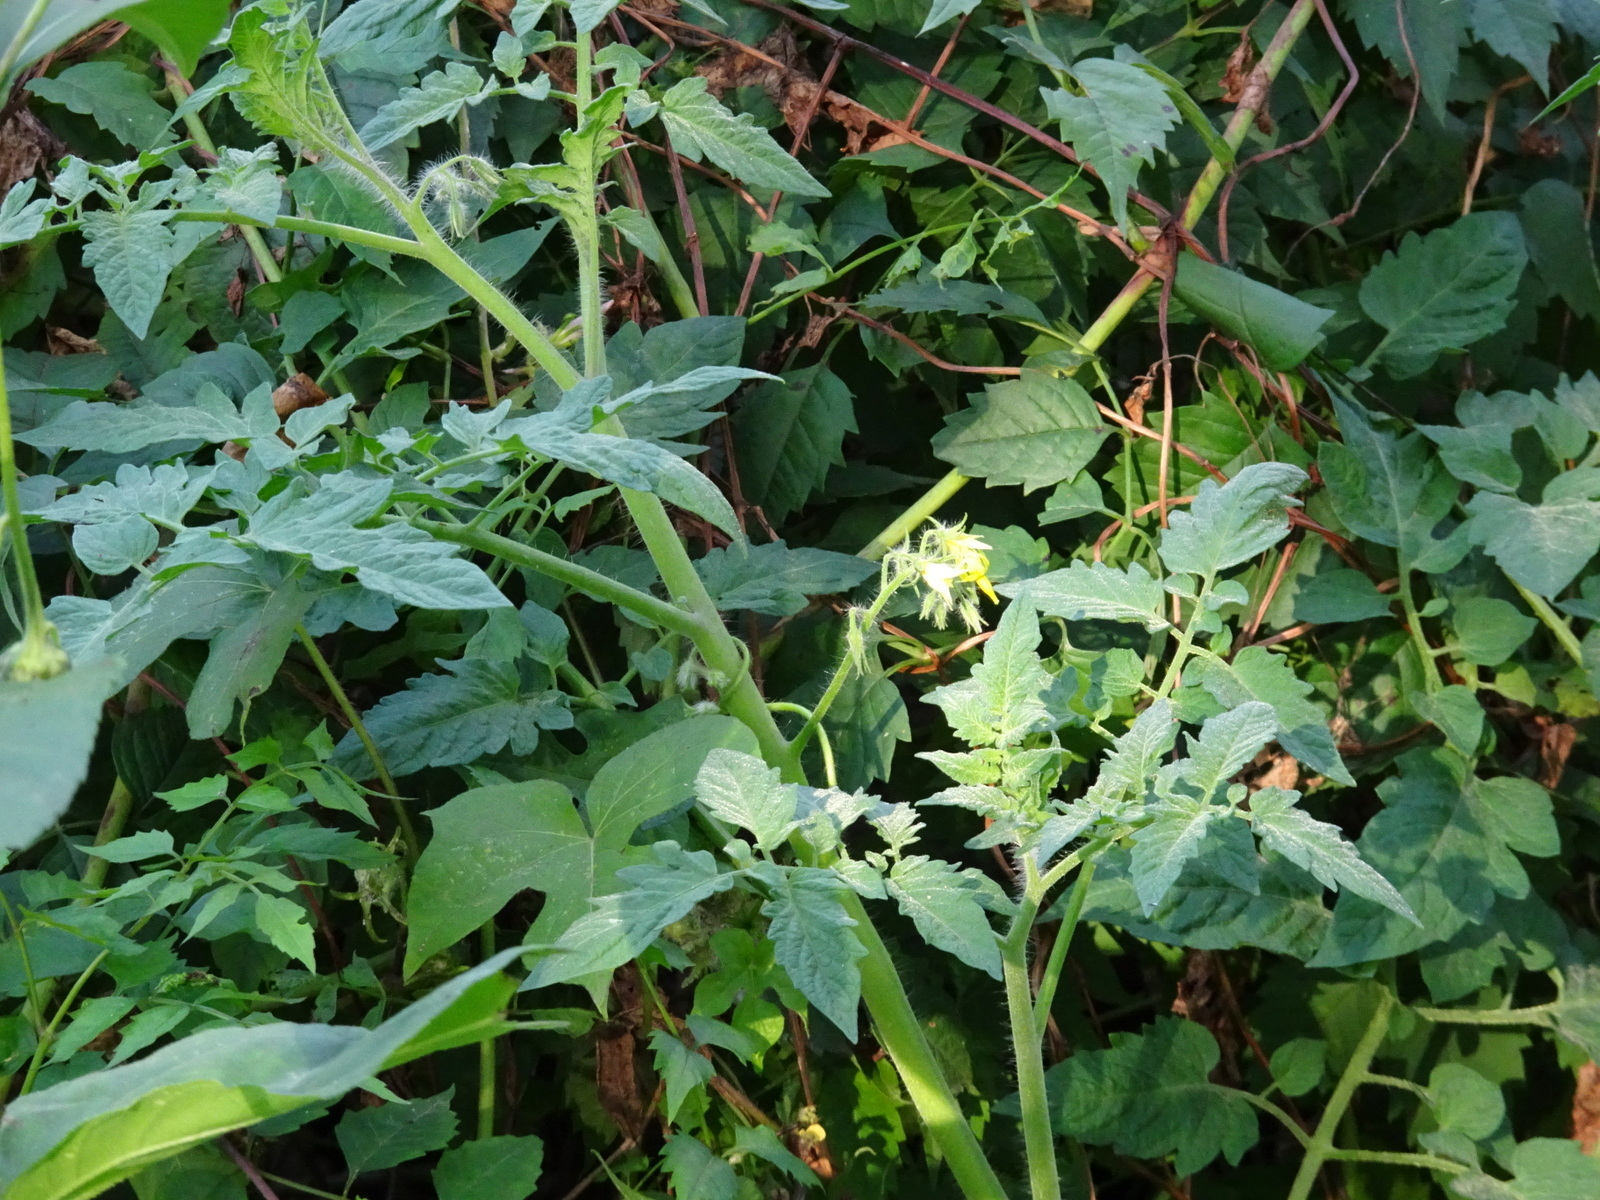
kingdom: Plantae
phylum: Tracheophyta
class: Magnoliopsida
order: Solanales
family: Solanaceae
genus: Solanum
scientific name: Solanum lycopersicum
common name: Garden tomato
